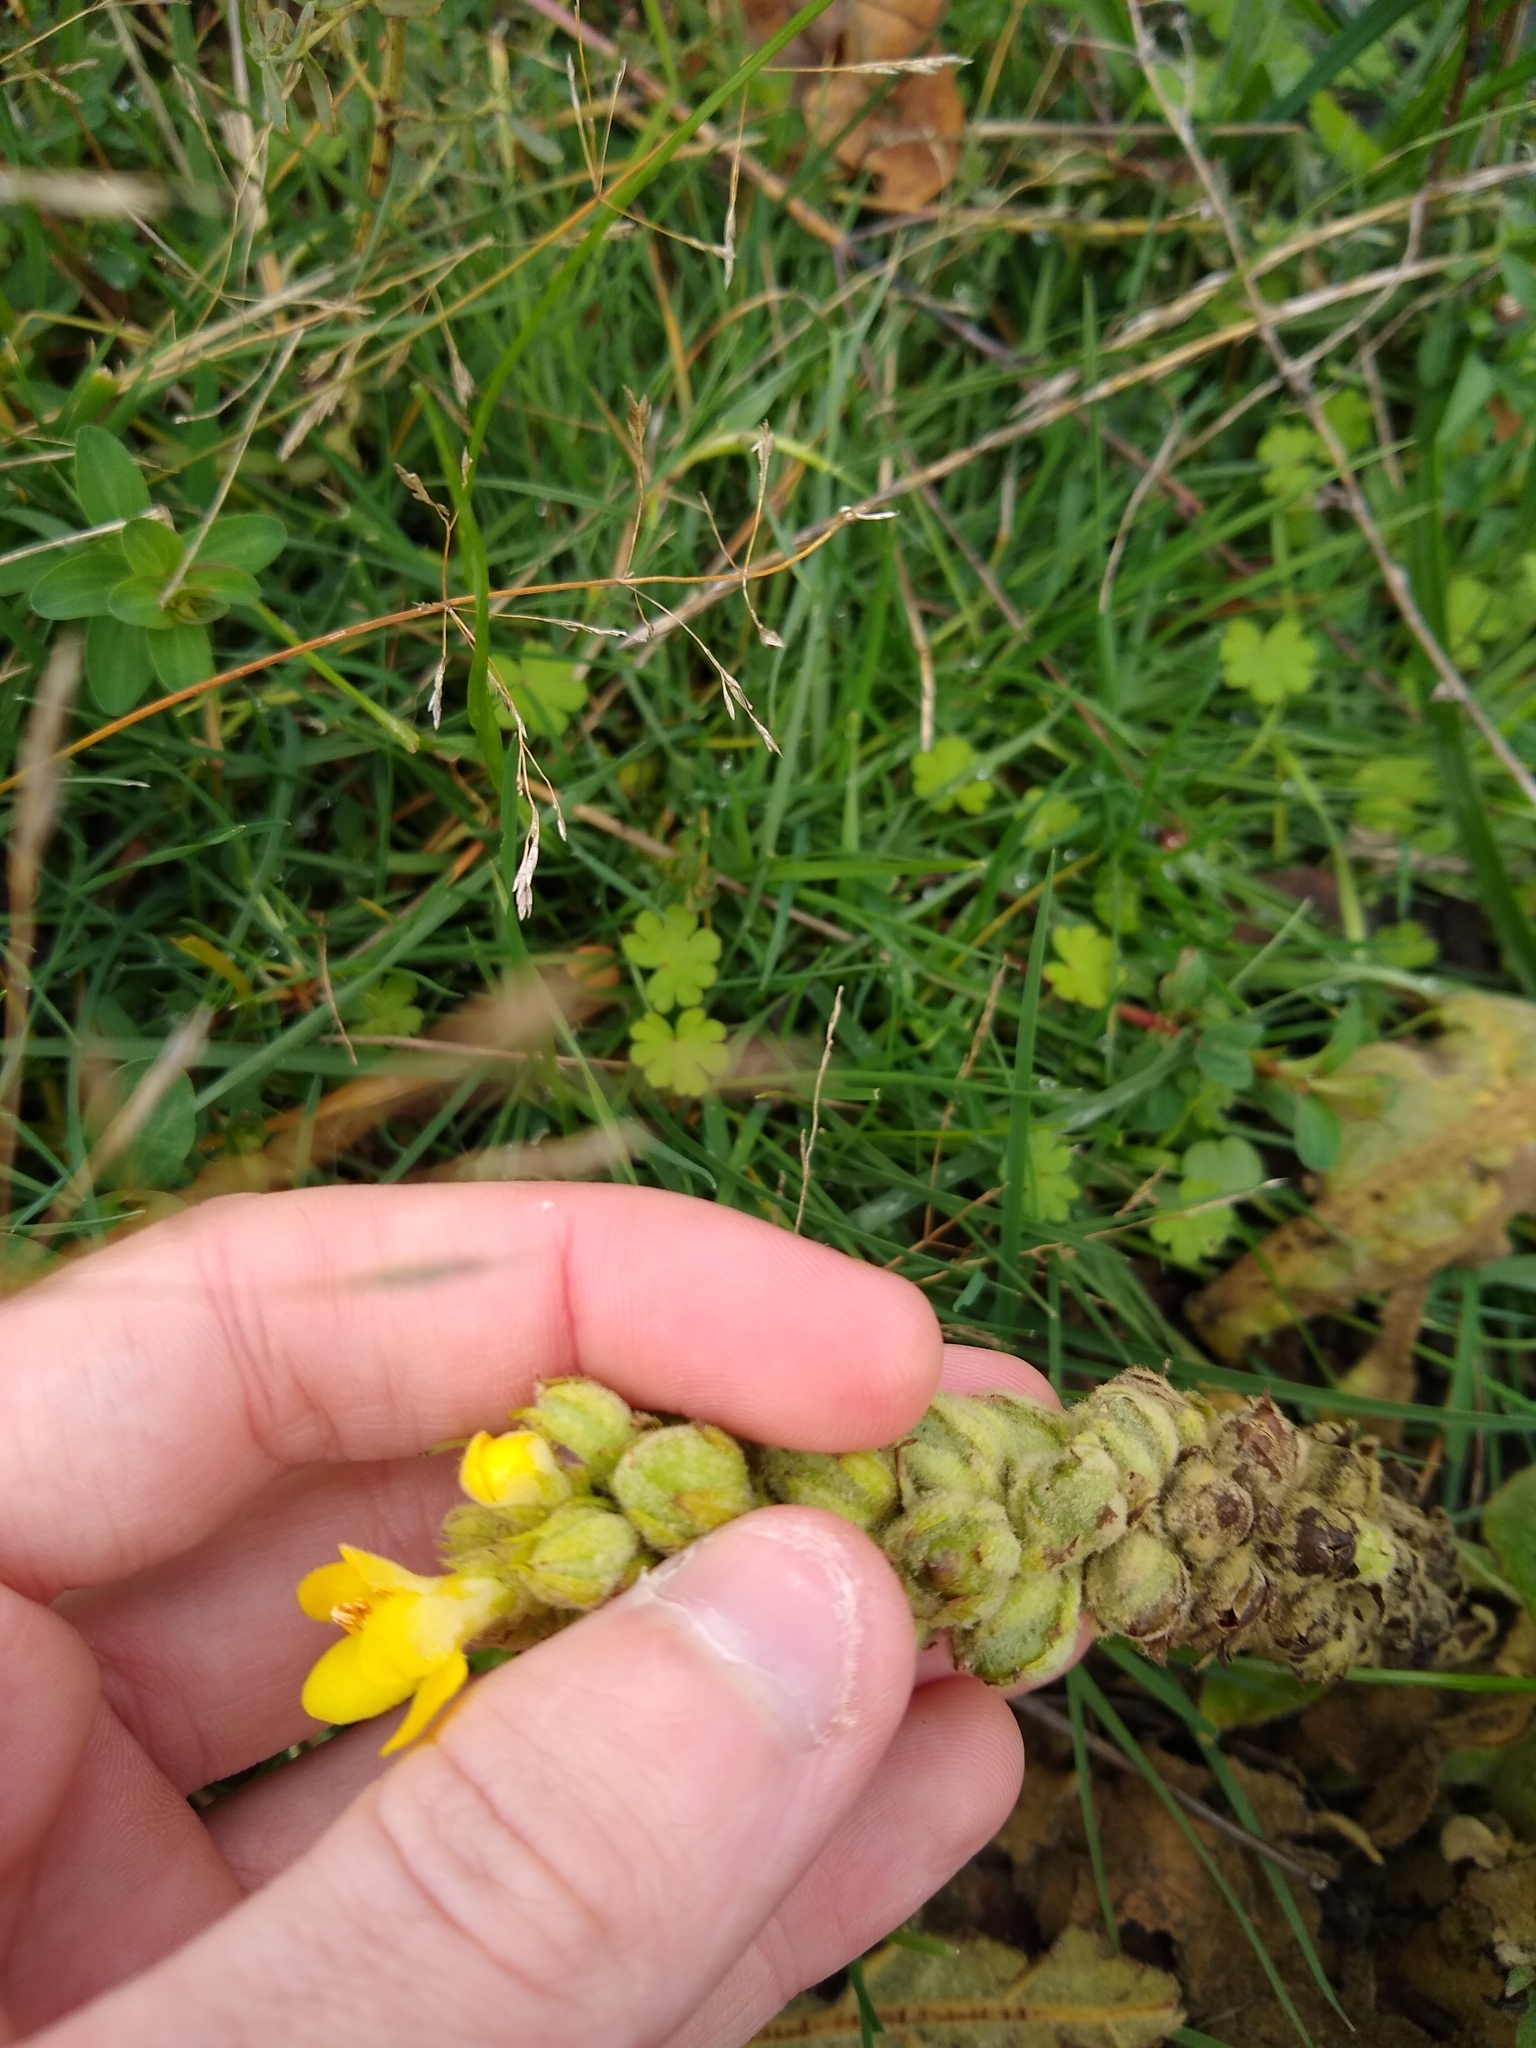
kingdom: Plantae
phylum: Tracheophyta
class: Magnoliopsida
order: Lamiales
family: Scrophulariaceae
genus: Verbascum
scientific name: Verbascum thapsus
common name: Common mullein
